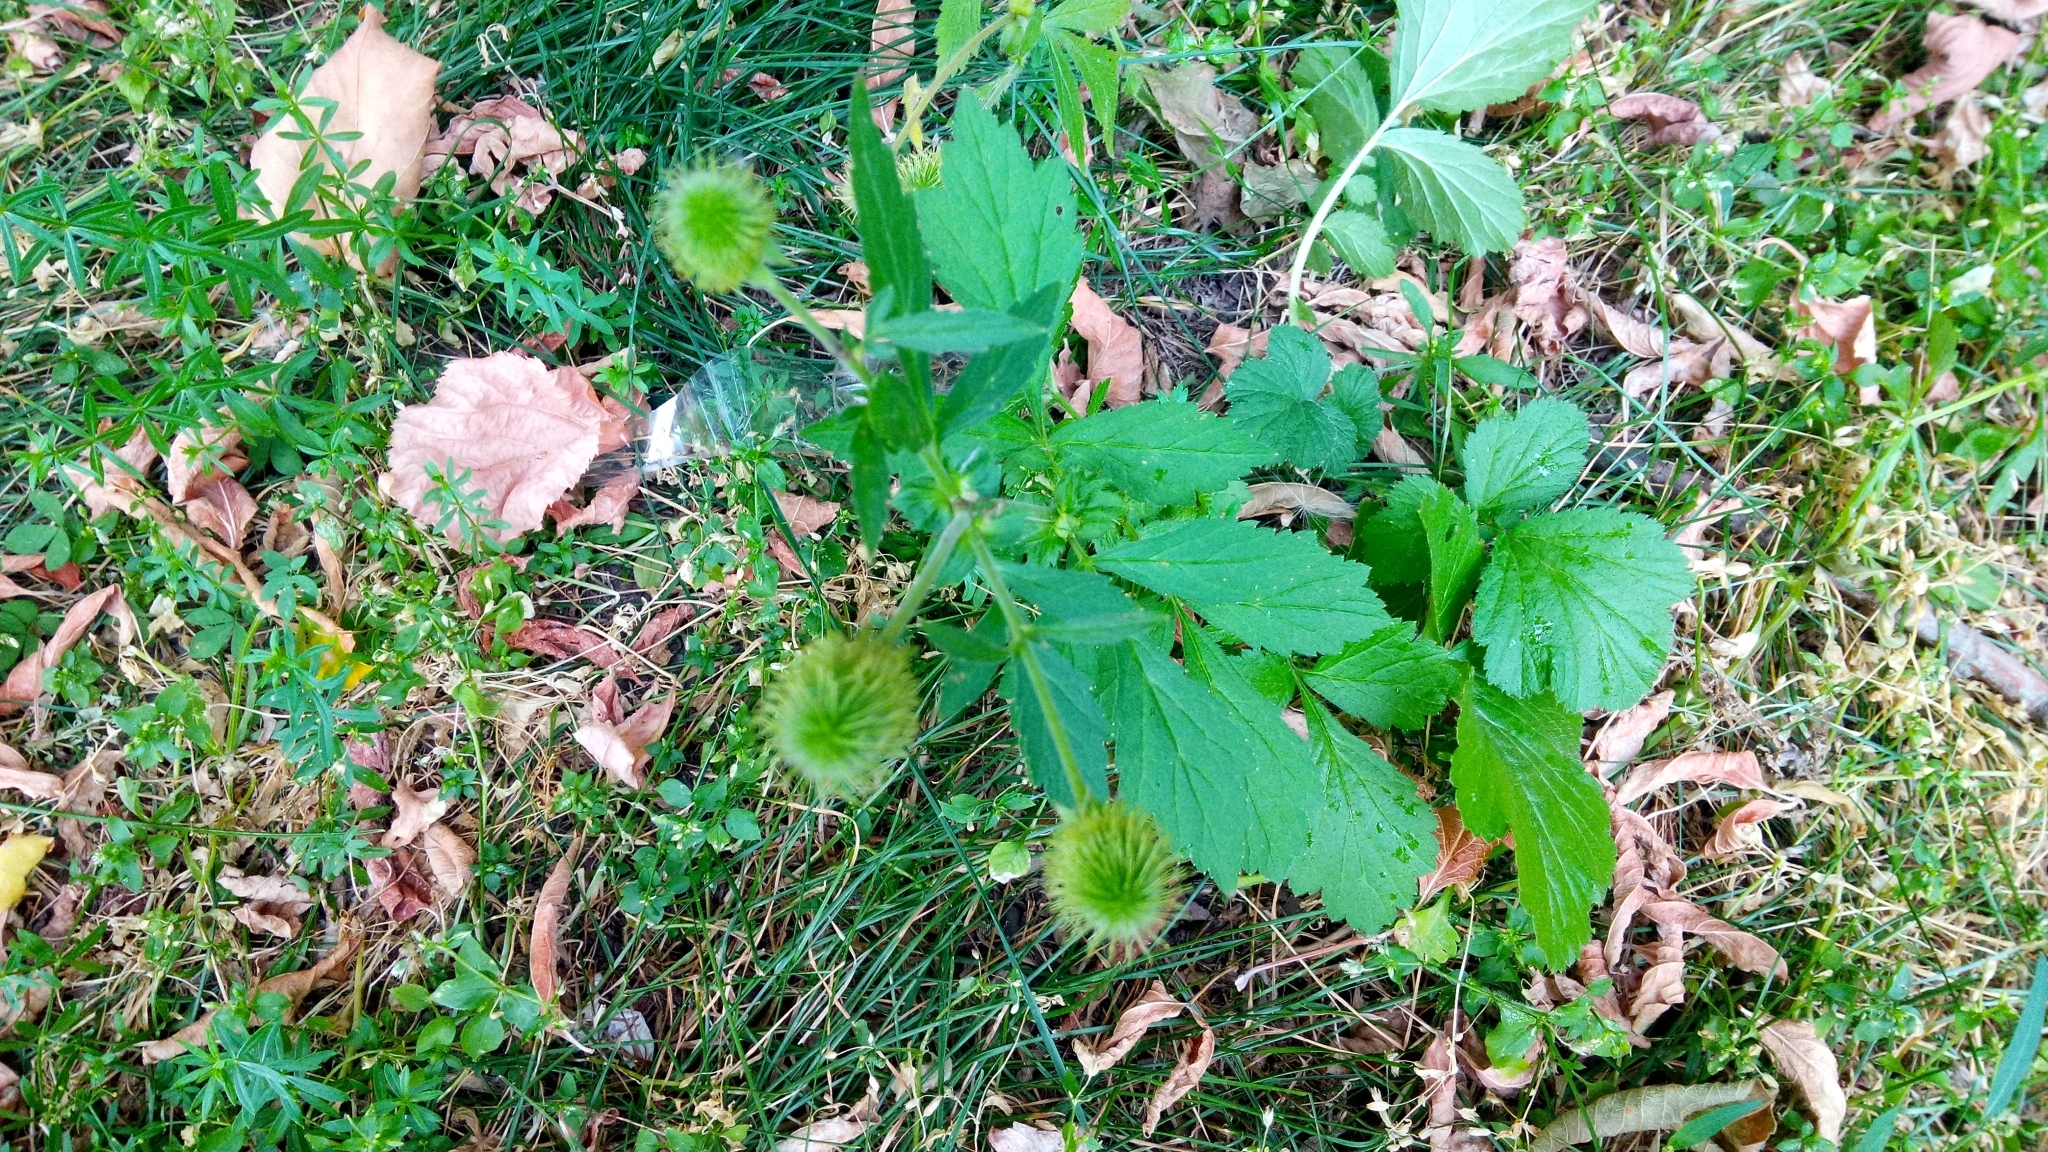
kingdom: Plantae
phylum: Tracheophyta
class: Magnoliopsida
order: Rosales
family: Rosaceae
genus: Geum
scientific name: Geum aleppicum
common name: Yellow avens
